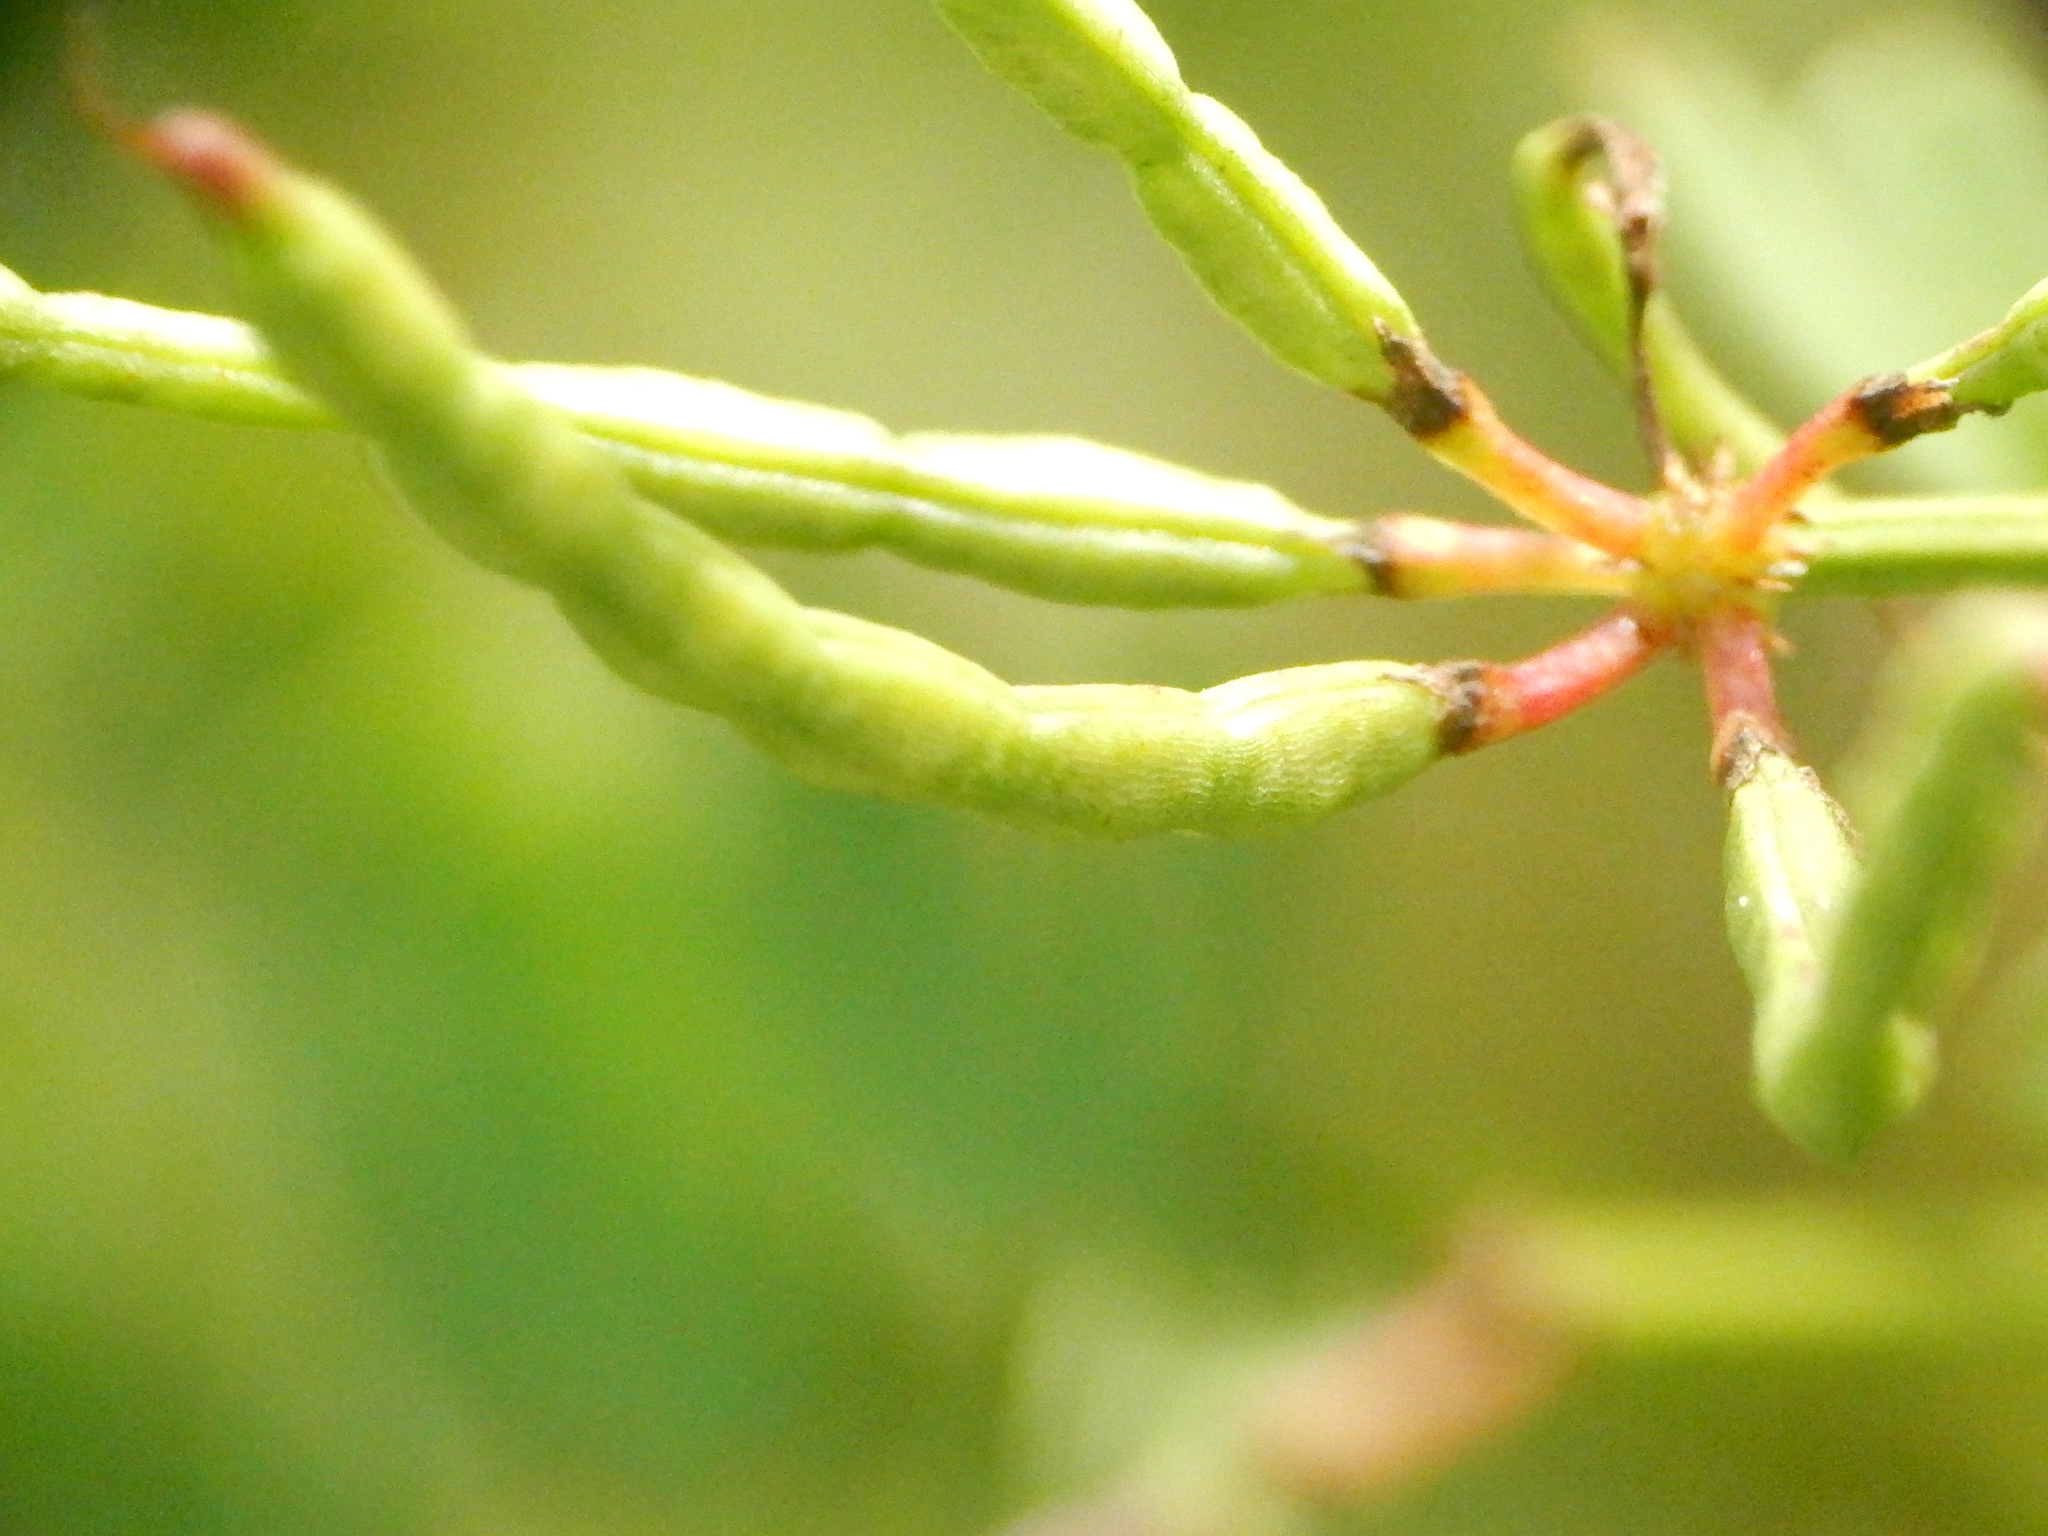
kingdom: Plantae
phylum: Tracheophyta
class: Magnoliopsida
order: Fabales
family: Fabaceae
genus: Coronilla
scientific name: Coronilla varia
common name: Crownvetch
